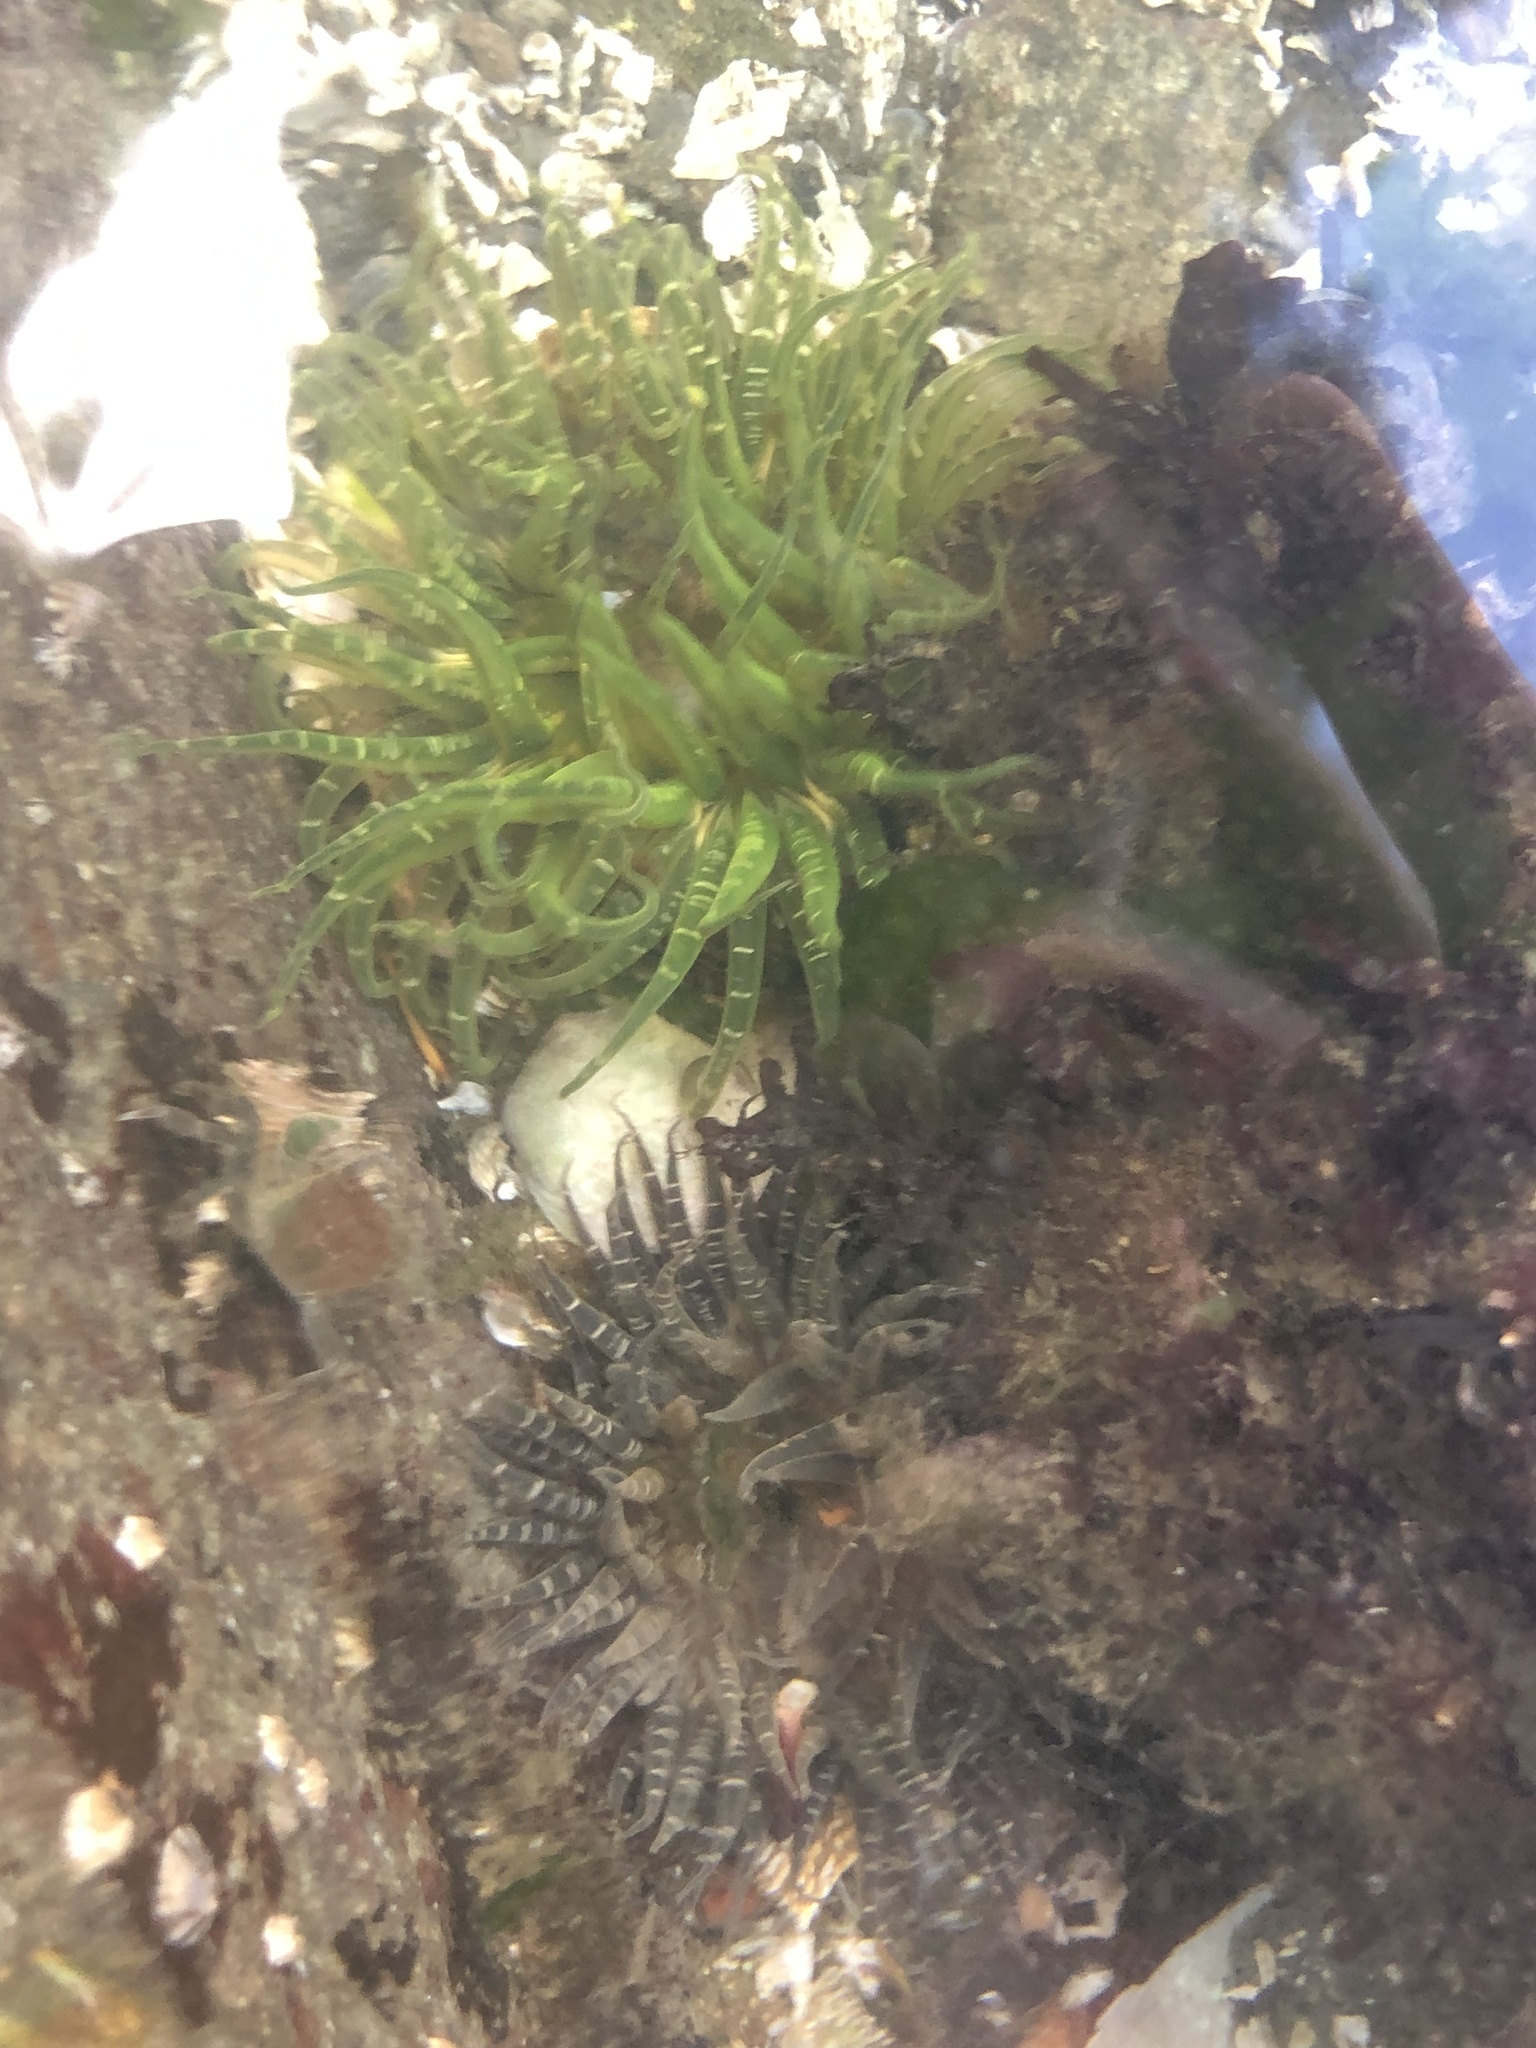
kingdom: Animalia
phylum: Cnidaria
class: Anthozoa
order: Actiniaria
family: Actiniidae
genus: Anthopleura
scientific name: Anthopleura artemisia
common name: Buried sea anemone
